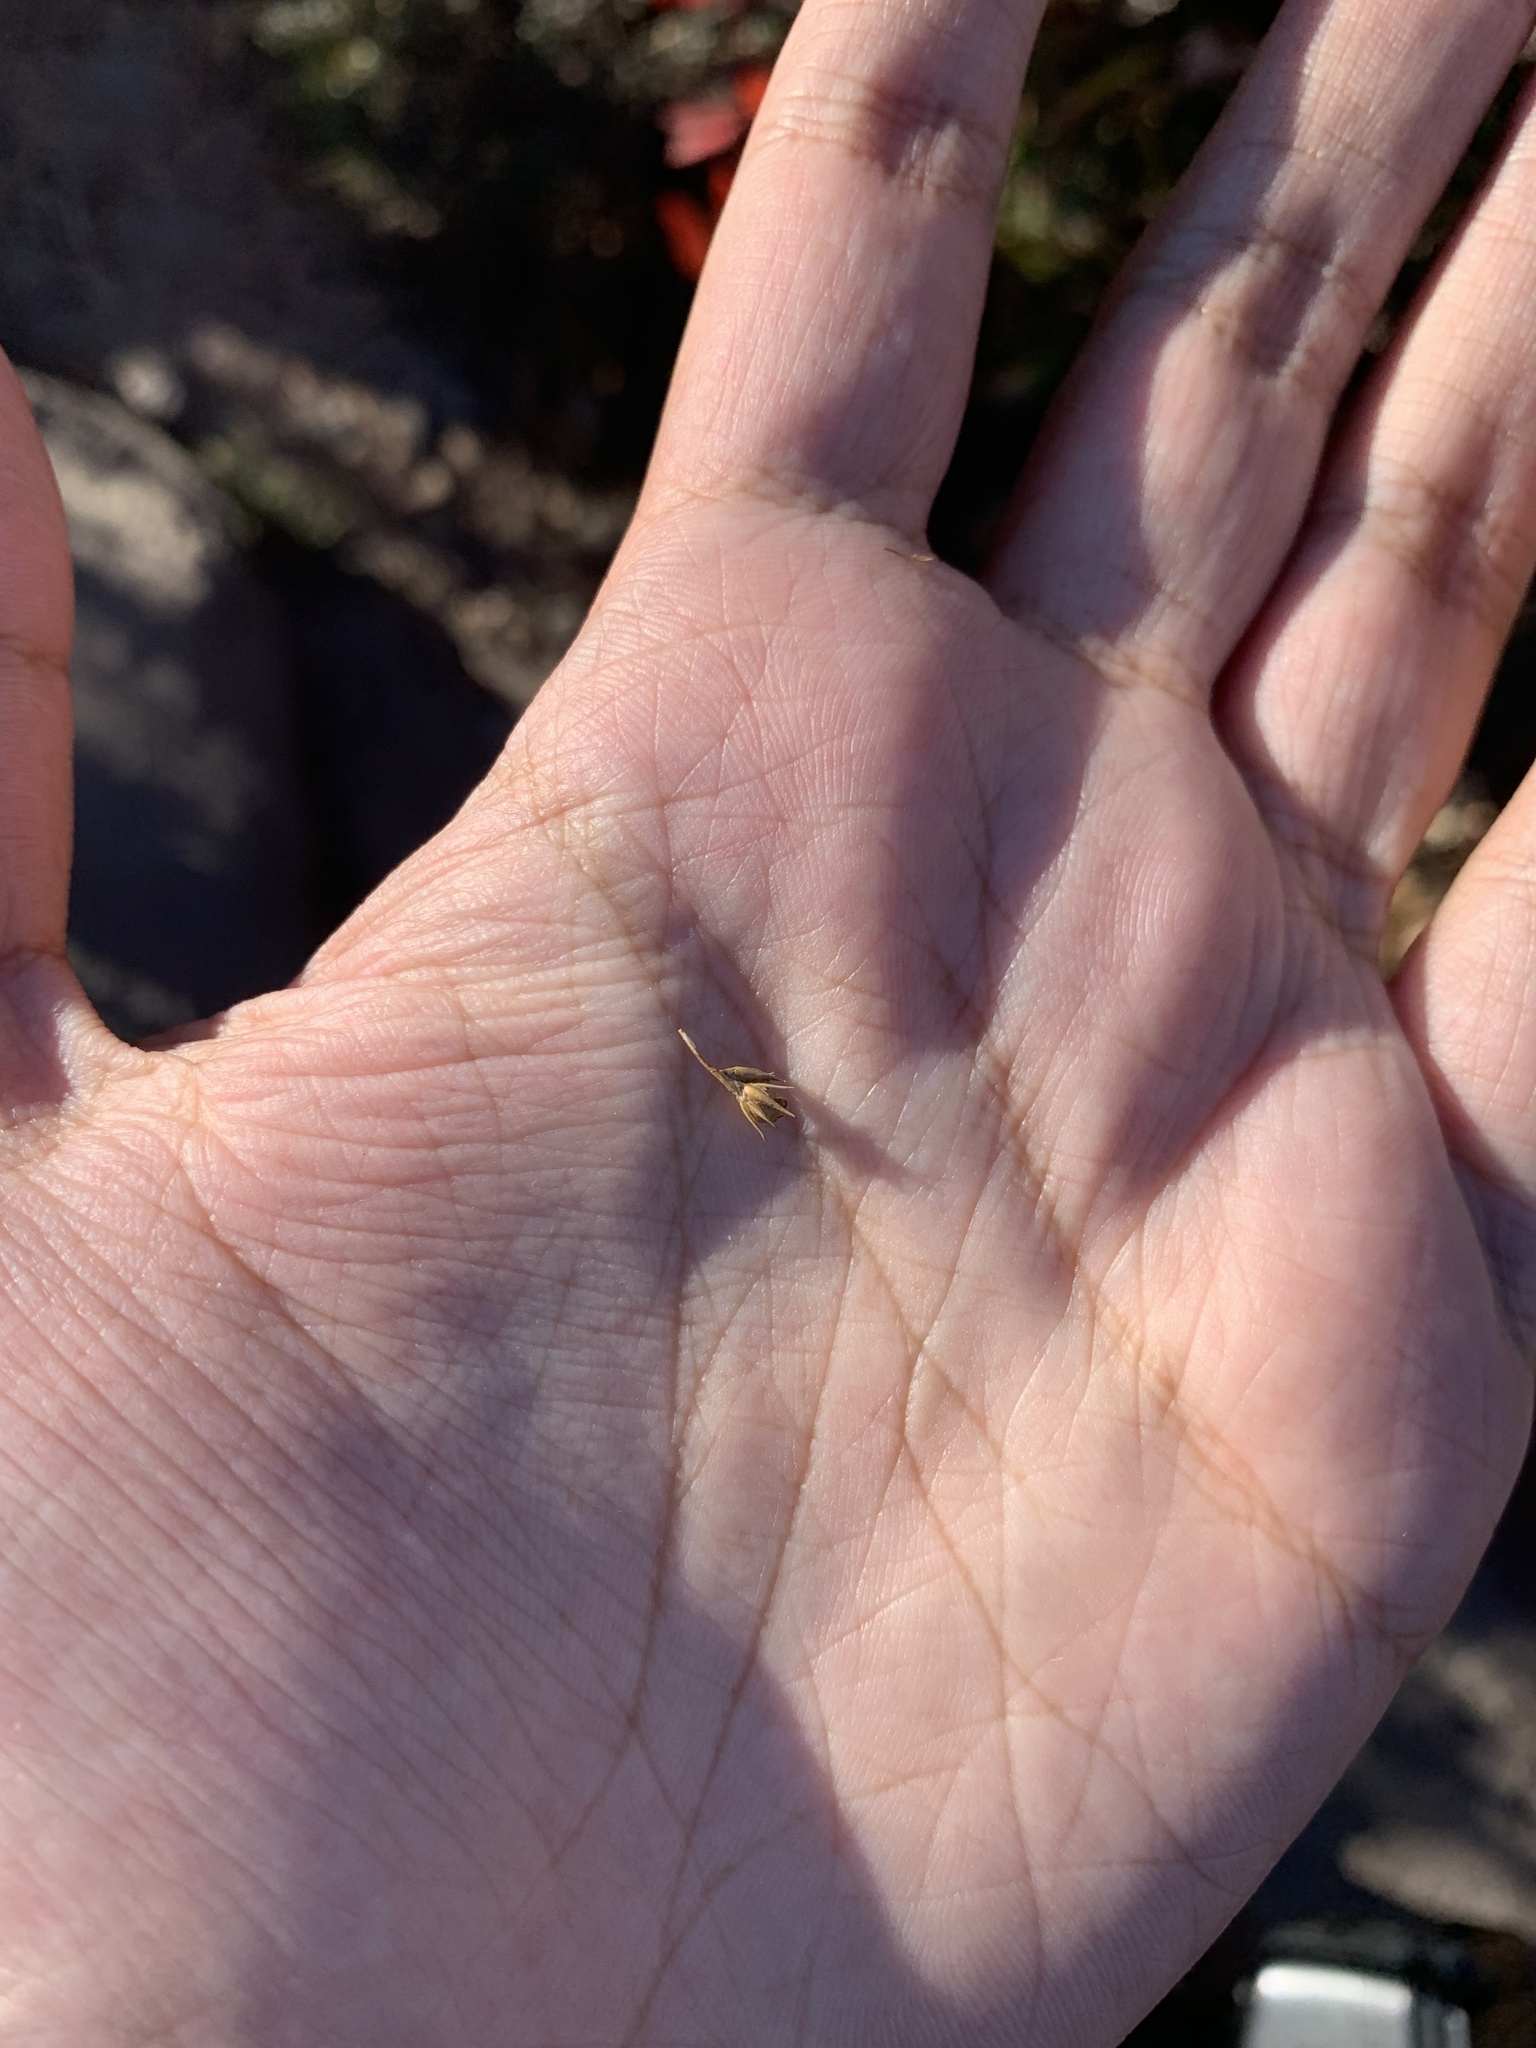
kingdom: Plantae
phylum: Tracheophyta
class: Liliopsida
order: Poales
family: Juncaceae
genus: Juncus
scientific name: Juncus tenuis
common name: Slender rush
